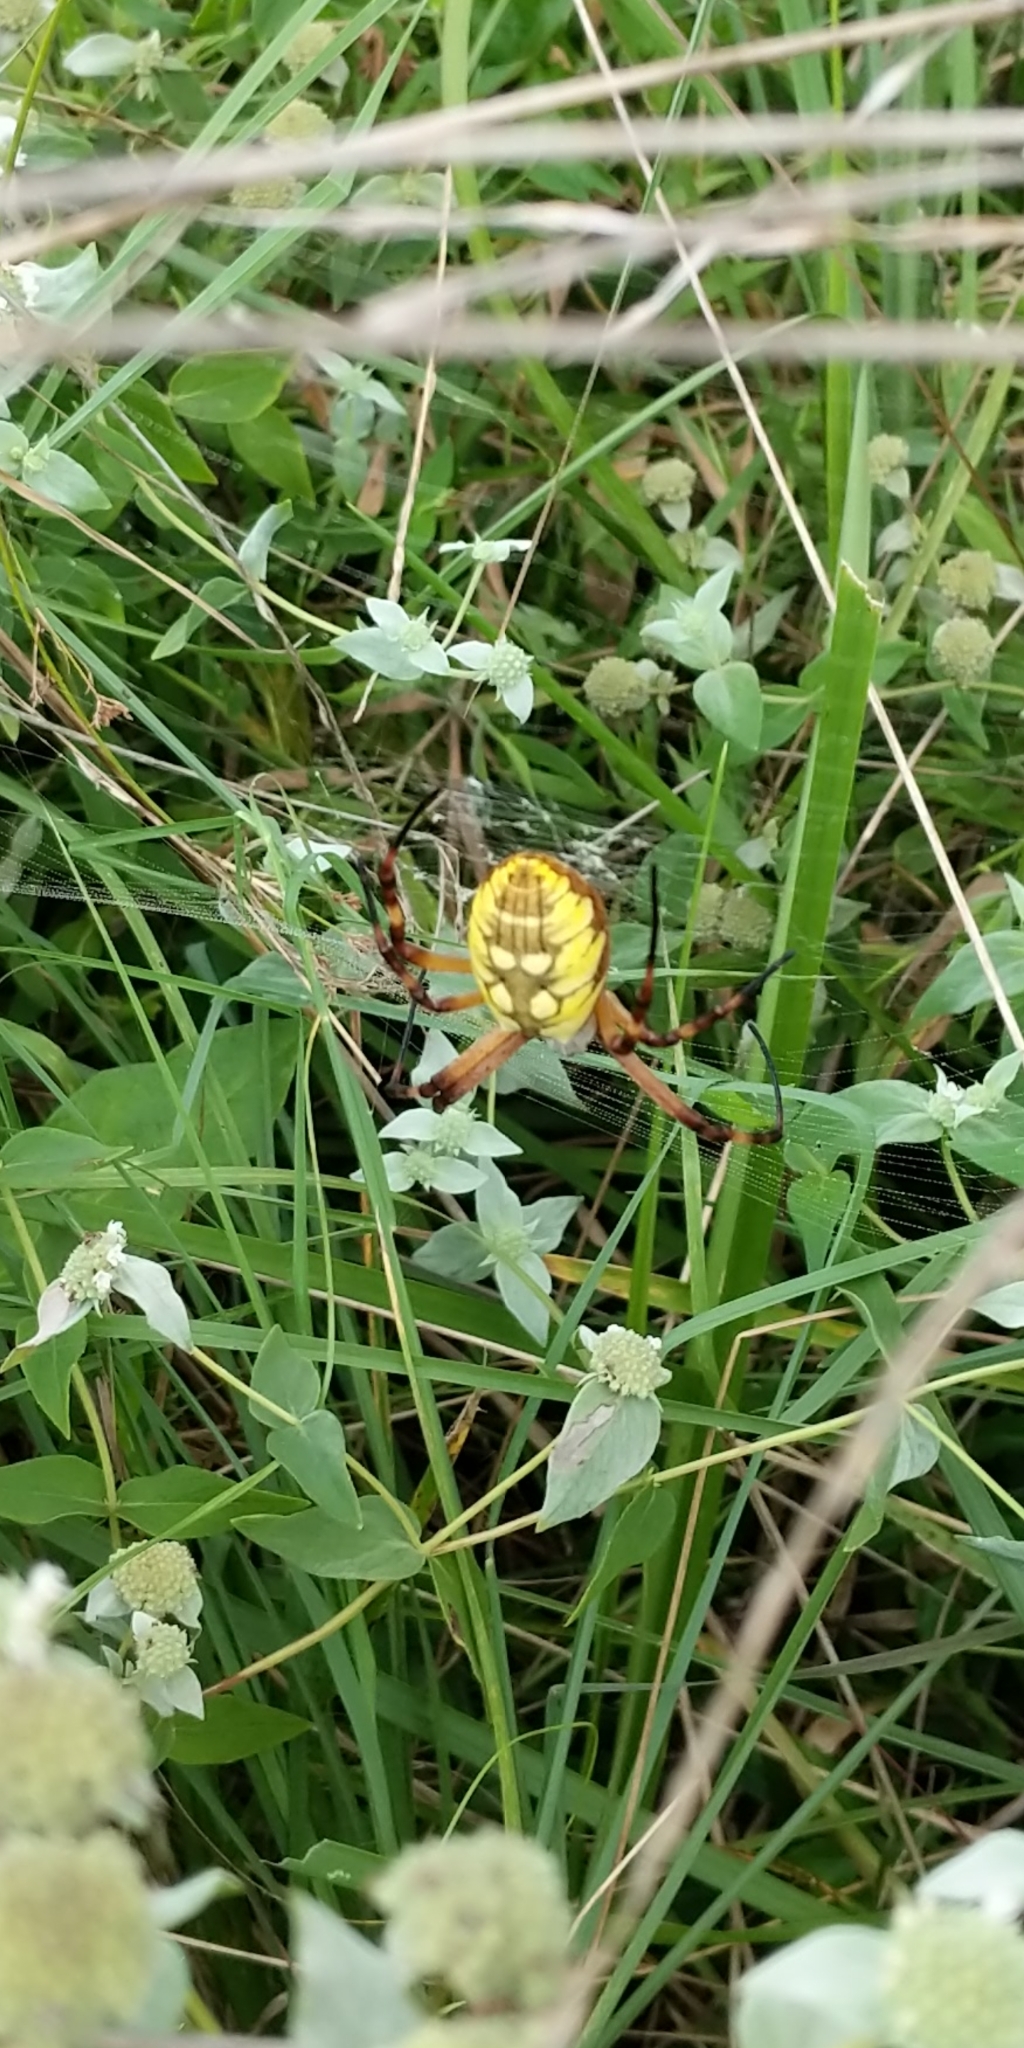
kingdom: Animalia
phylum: Arthropoda
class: Arachnida
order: Araneae
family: Araneidae
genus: Argiope
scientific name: Argiope aurantia
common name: Orb weavers
